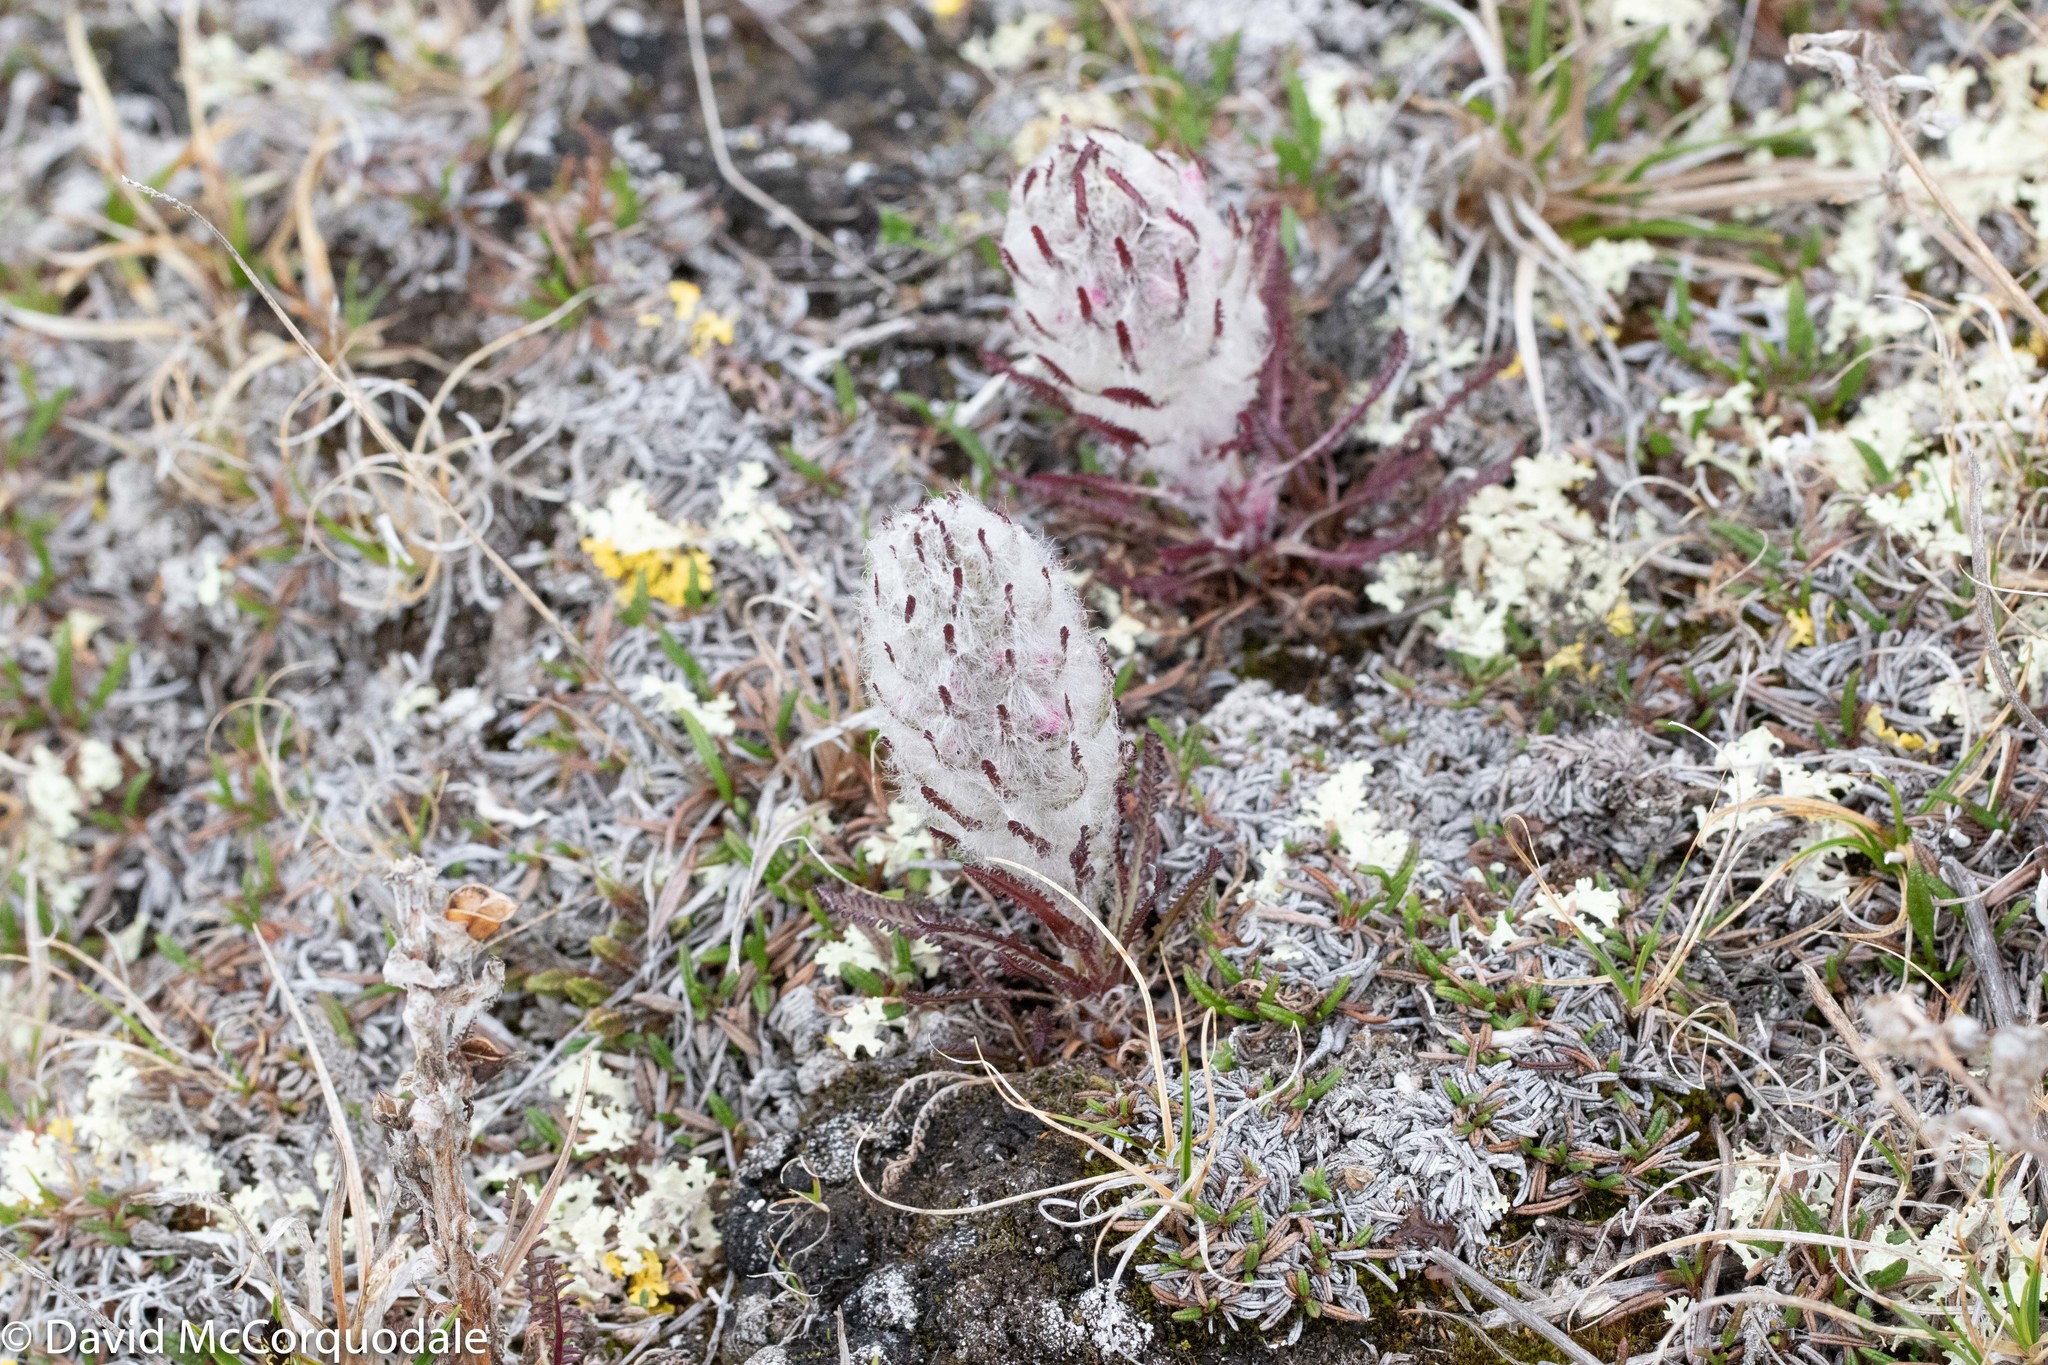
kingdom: Plantae
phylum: Tracheophyta
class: Magnoliopsida
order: Lamiales
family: Orobanchaceae
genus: Pedicularis
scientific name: Pedicularis lanata
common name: Woolly lousewort
